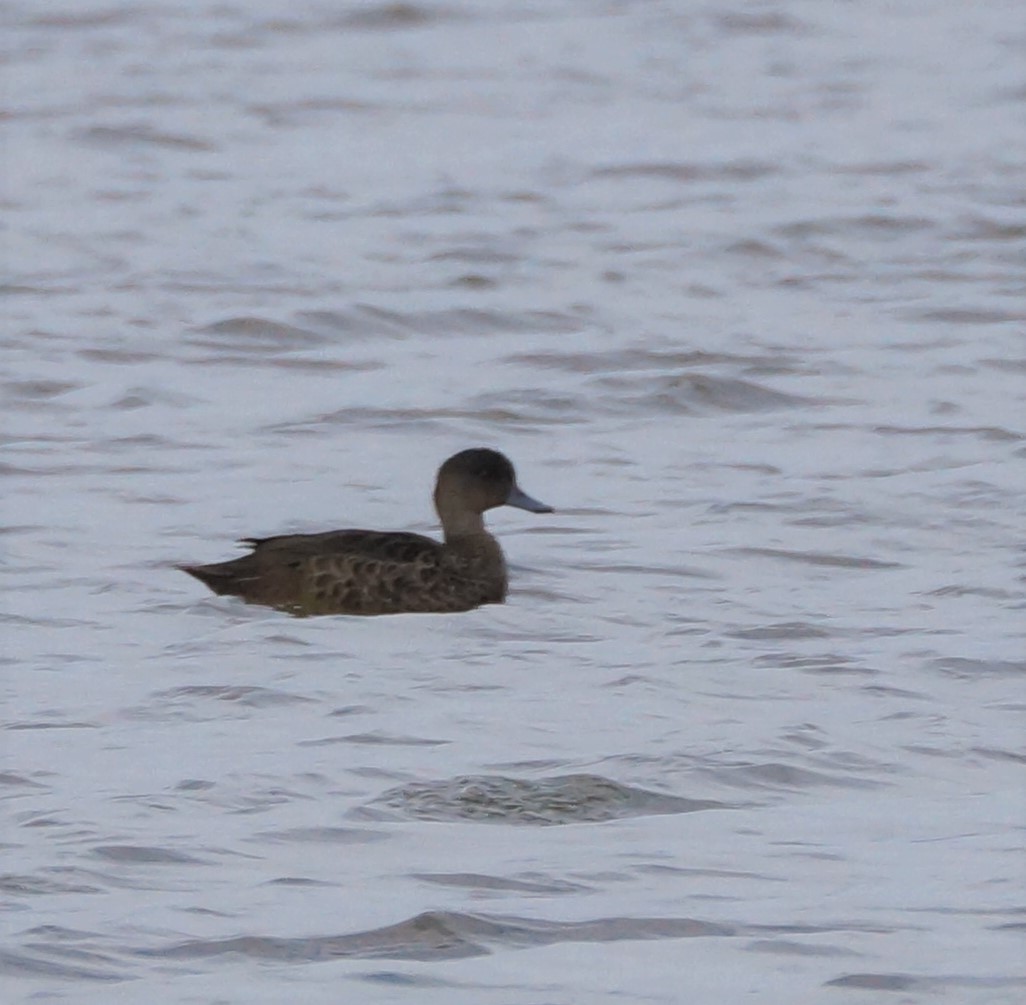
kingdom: Animalia
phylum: Chordata
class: Aves
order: Anseriformes
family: Anatidae
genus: Anas
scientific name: Anas castanea
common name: Chestnut teal
